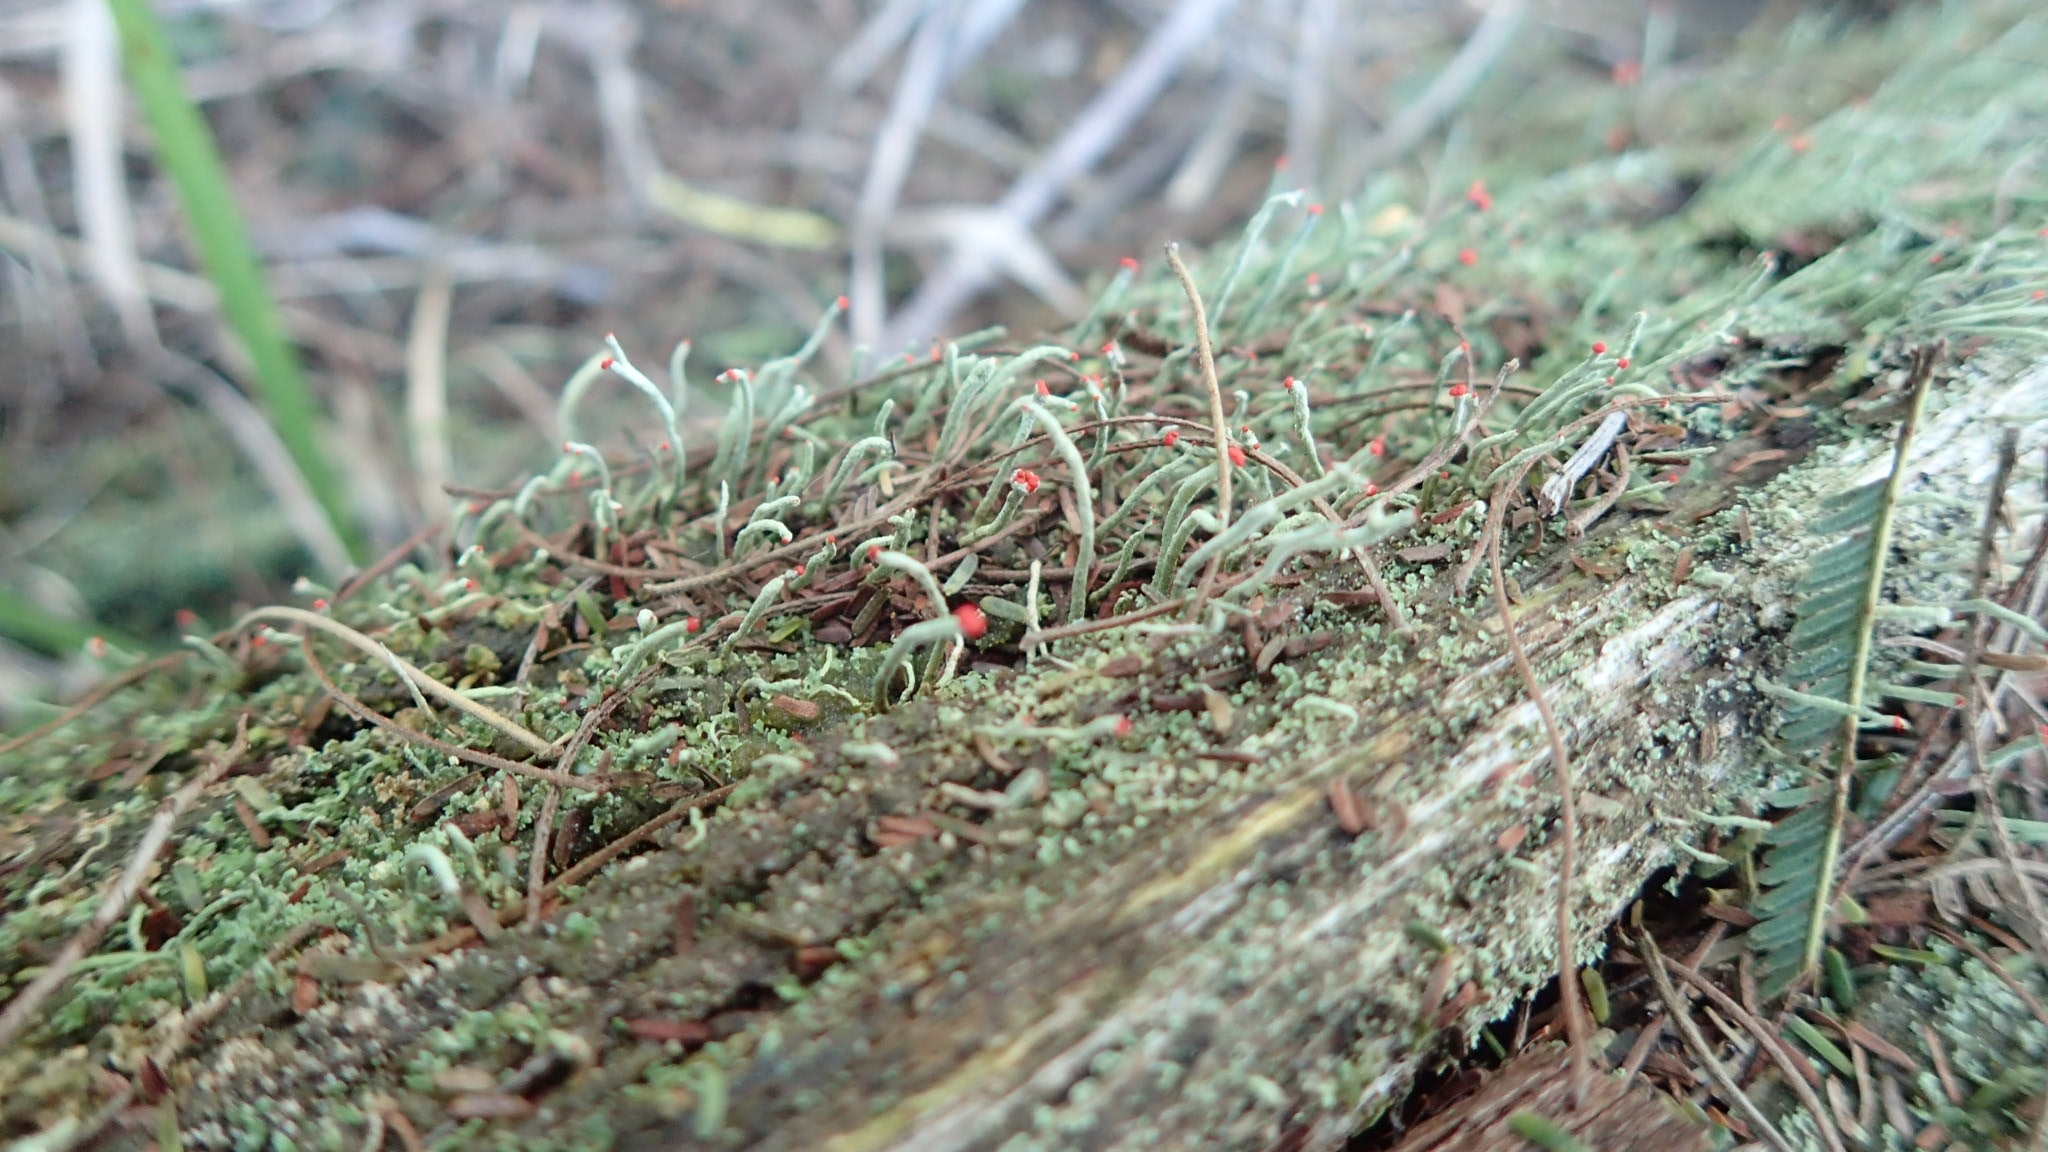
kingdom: Fungi
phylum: Ascomycota
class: Lecanoromycetes
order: Lecanorales
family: Cladoniaceae
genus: Cladonia
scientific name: Cladonia macilenta
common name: Lipstick powderhorn
